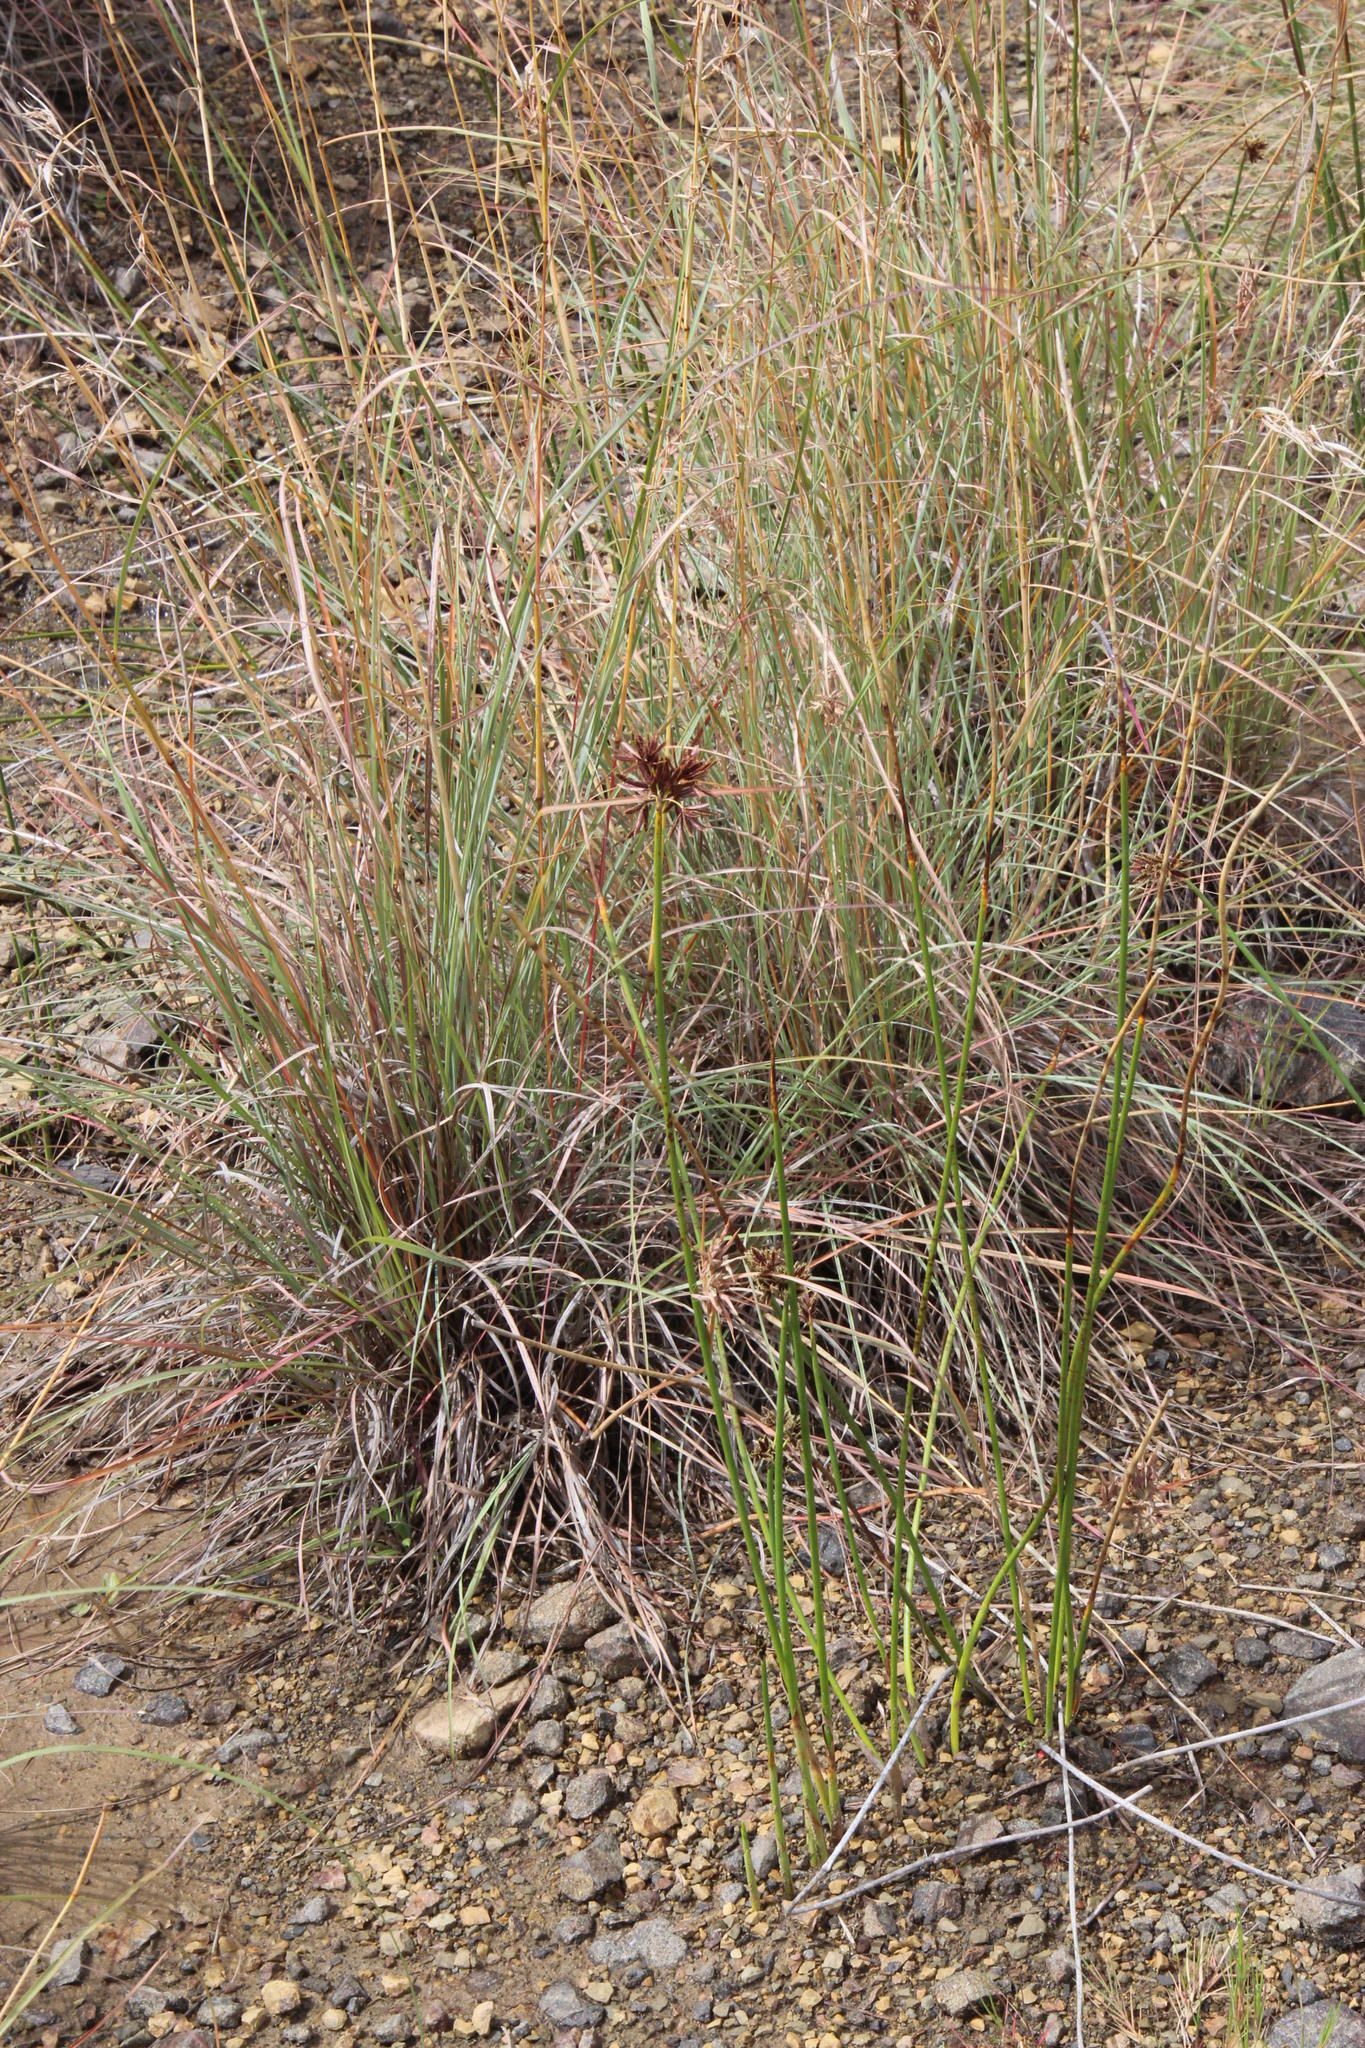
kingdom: Plantae
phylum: Tracheophyta
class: Liliopsida
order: Poales
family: Cyperaceae
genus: Cyperus
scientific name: Cyperus marginatus
